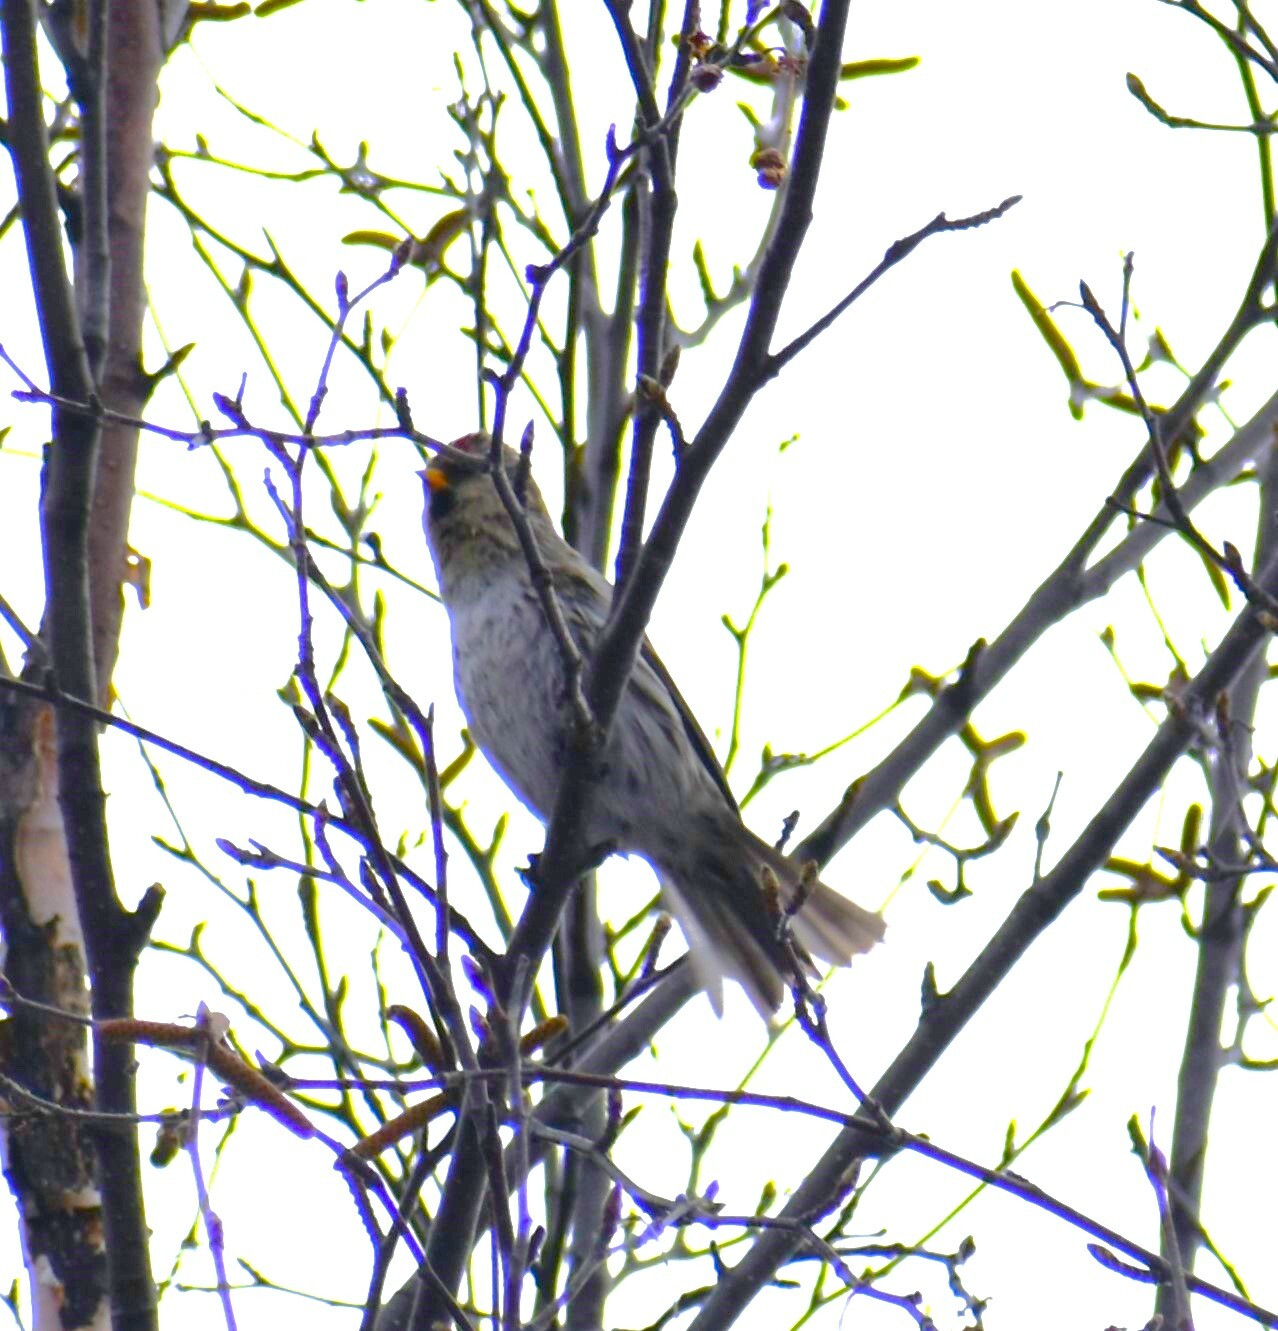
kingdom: Animalia
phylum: Chordata
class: Aves
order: Passeriformes
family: Fringillidae
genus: Acanthis
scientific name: Acanthis flammea
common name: Common redpoll
